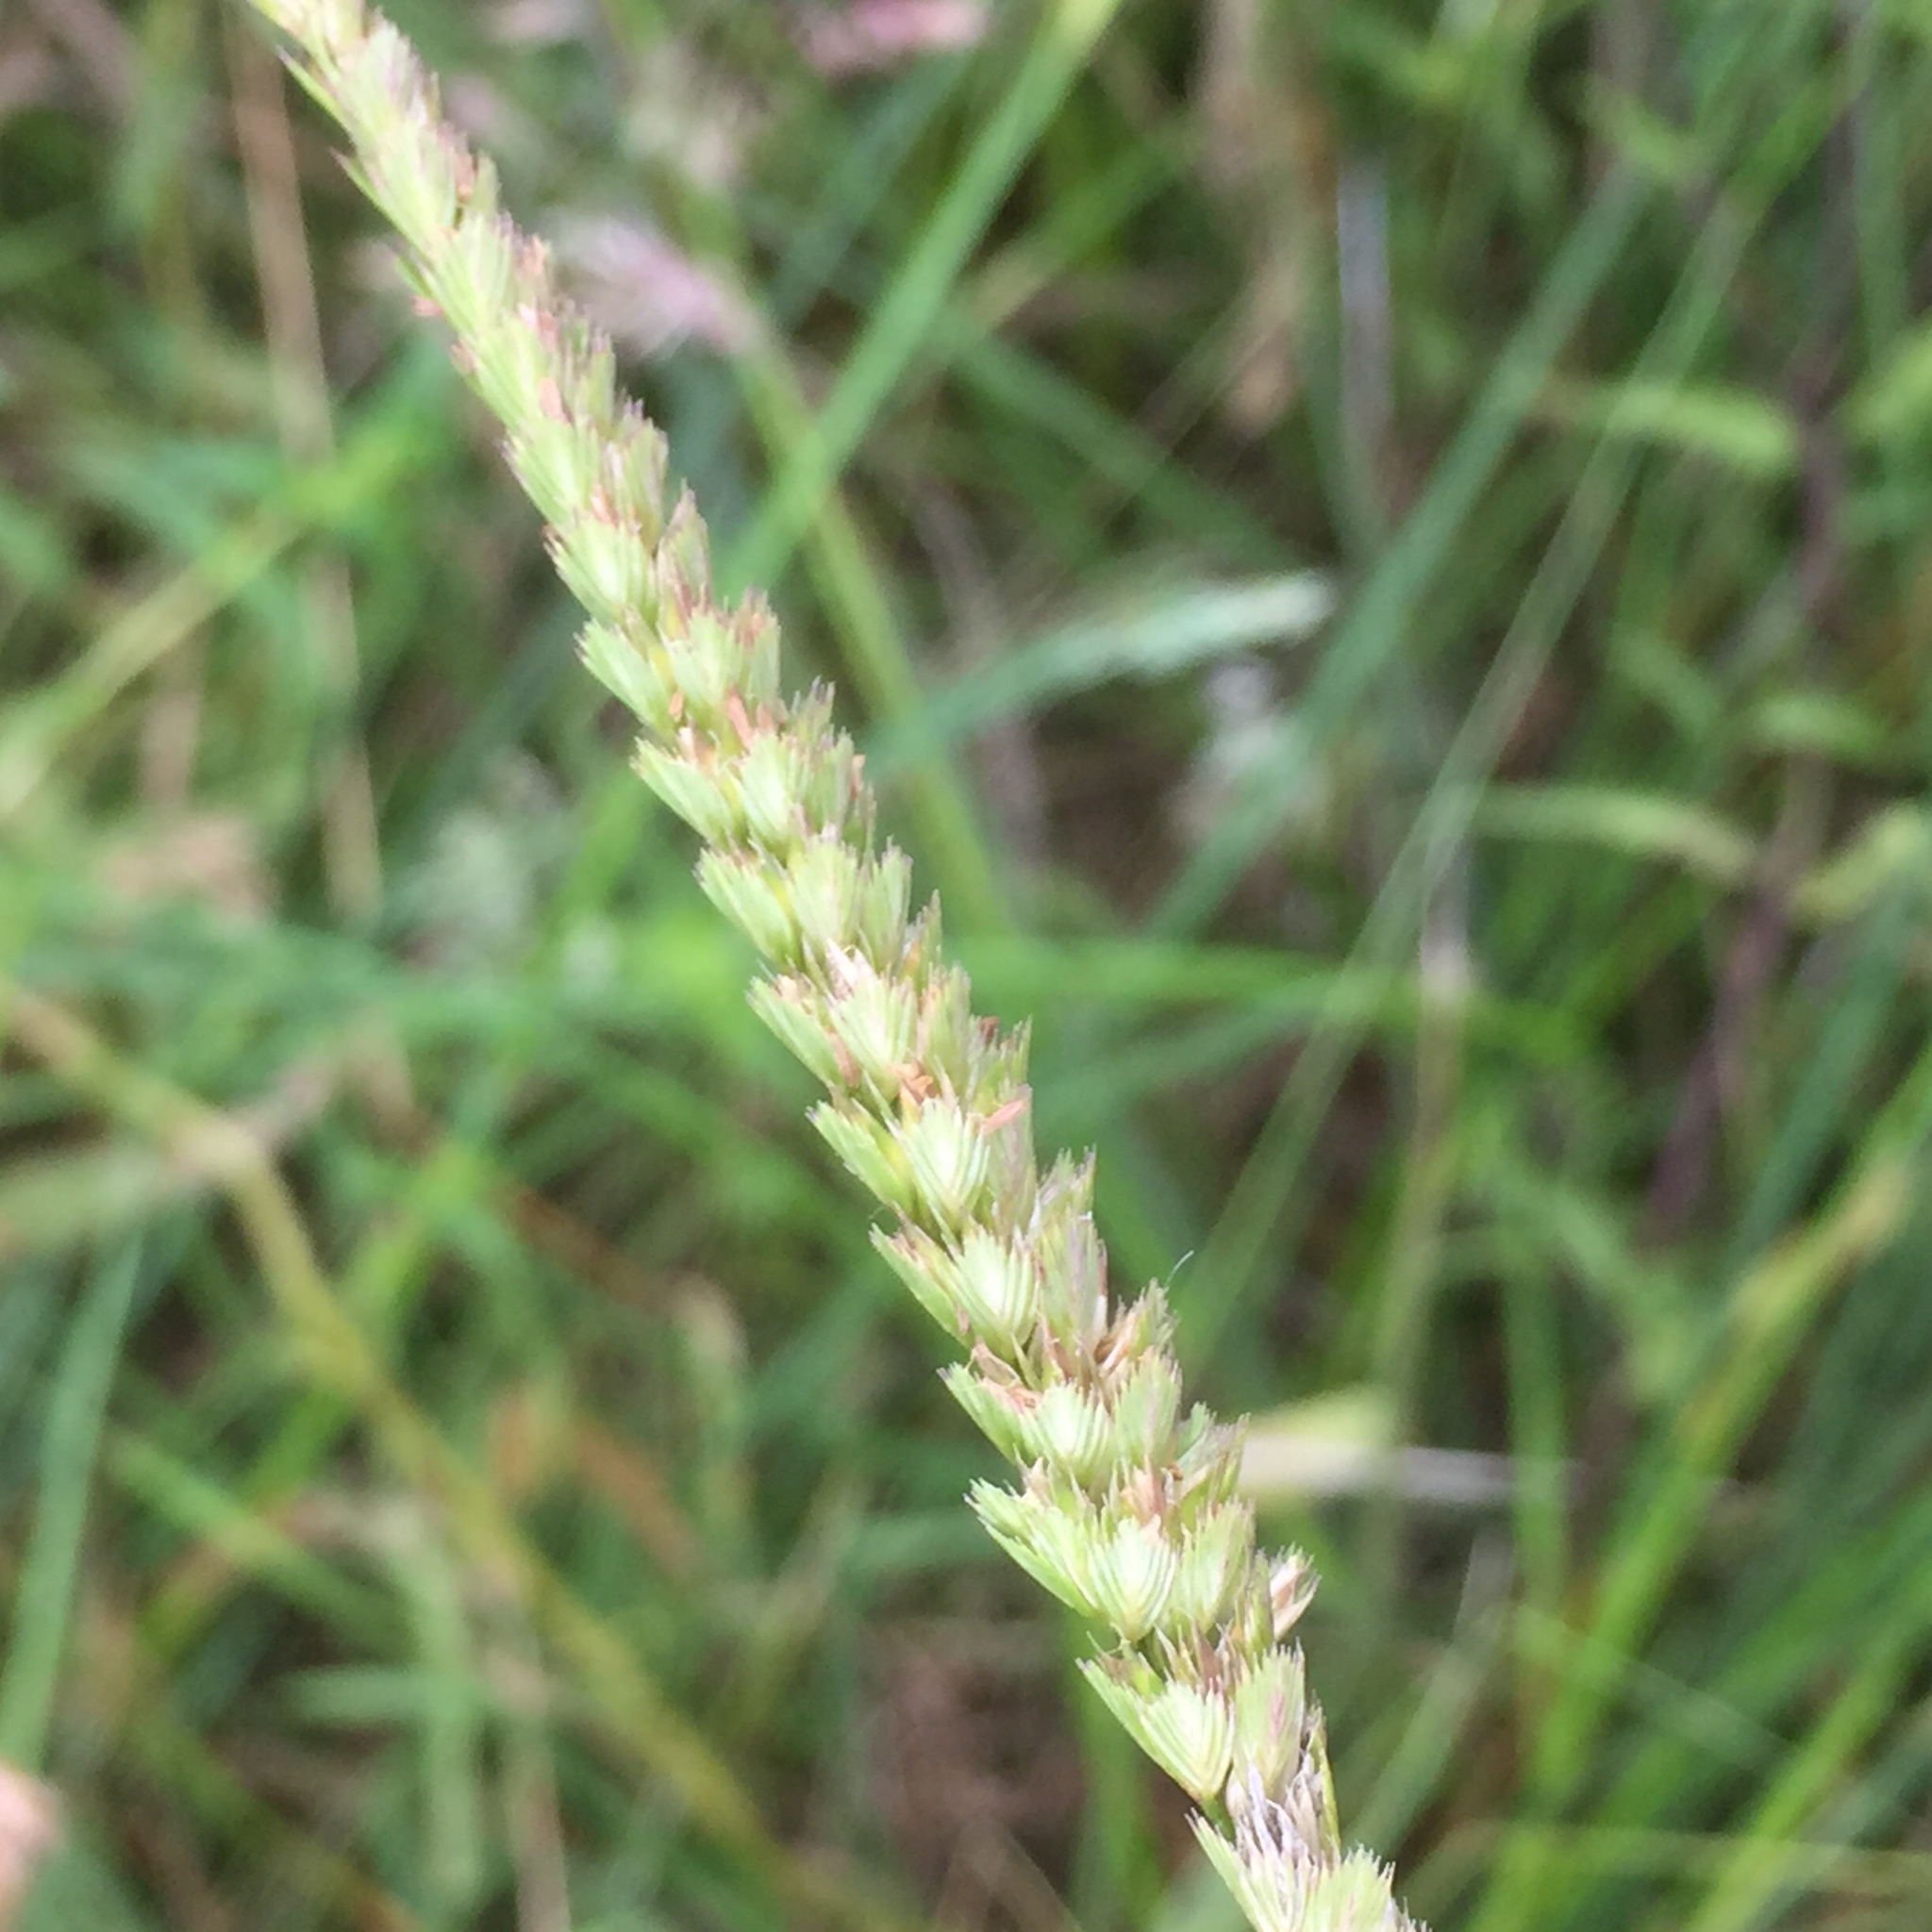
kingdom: Plantae
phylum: Tracheophyta
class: Liliopsida
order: Poales
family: Poaceae
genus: Cynosurus
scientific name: Cynosurus cristatus
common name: Crested dog's-tail
